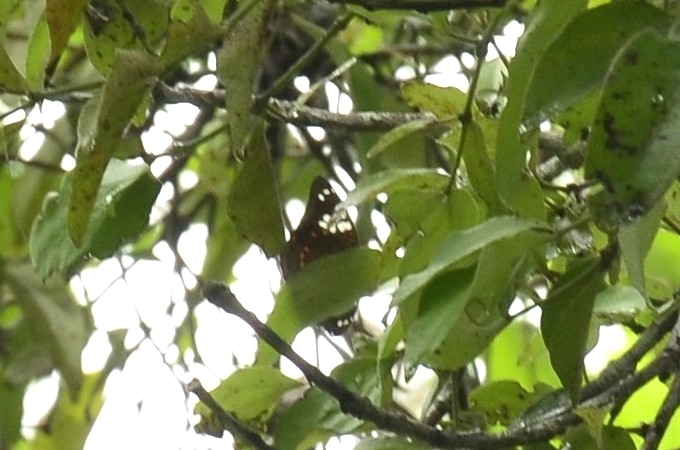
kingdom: Animalia
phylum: Arthropoda
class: Insecta
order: Lepidoptera
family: Nymphalidae
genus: Euthalia
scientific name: Euthalia lubentina
